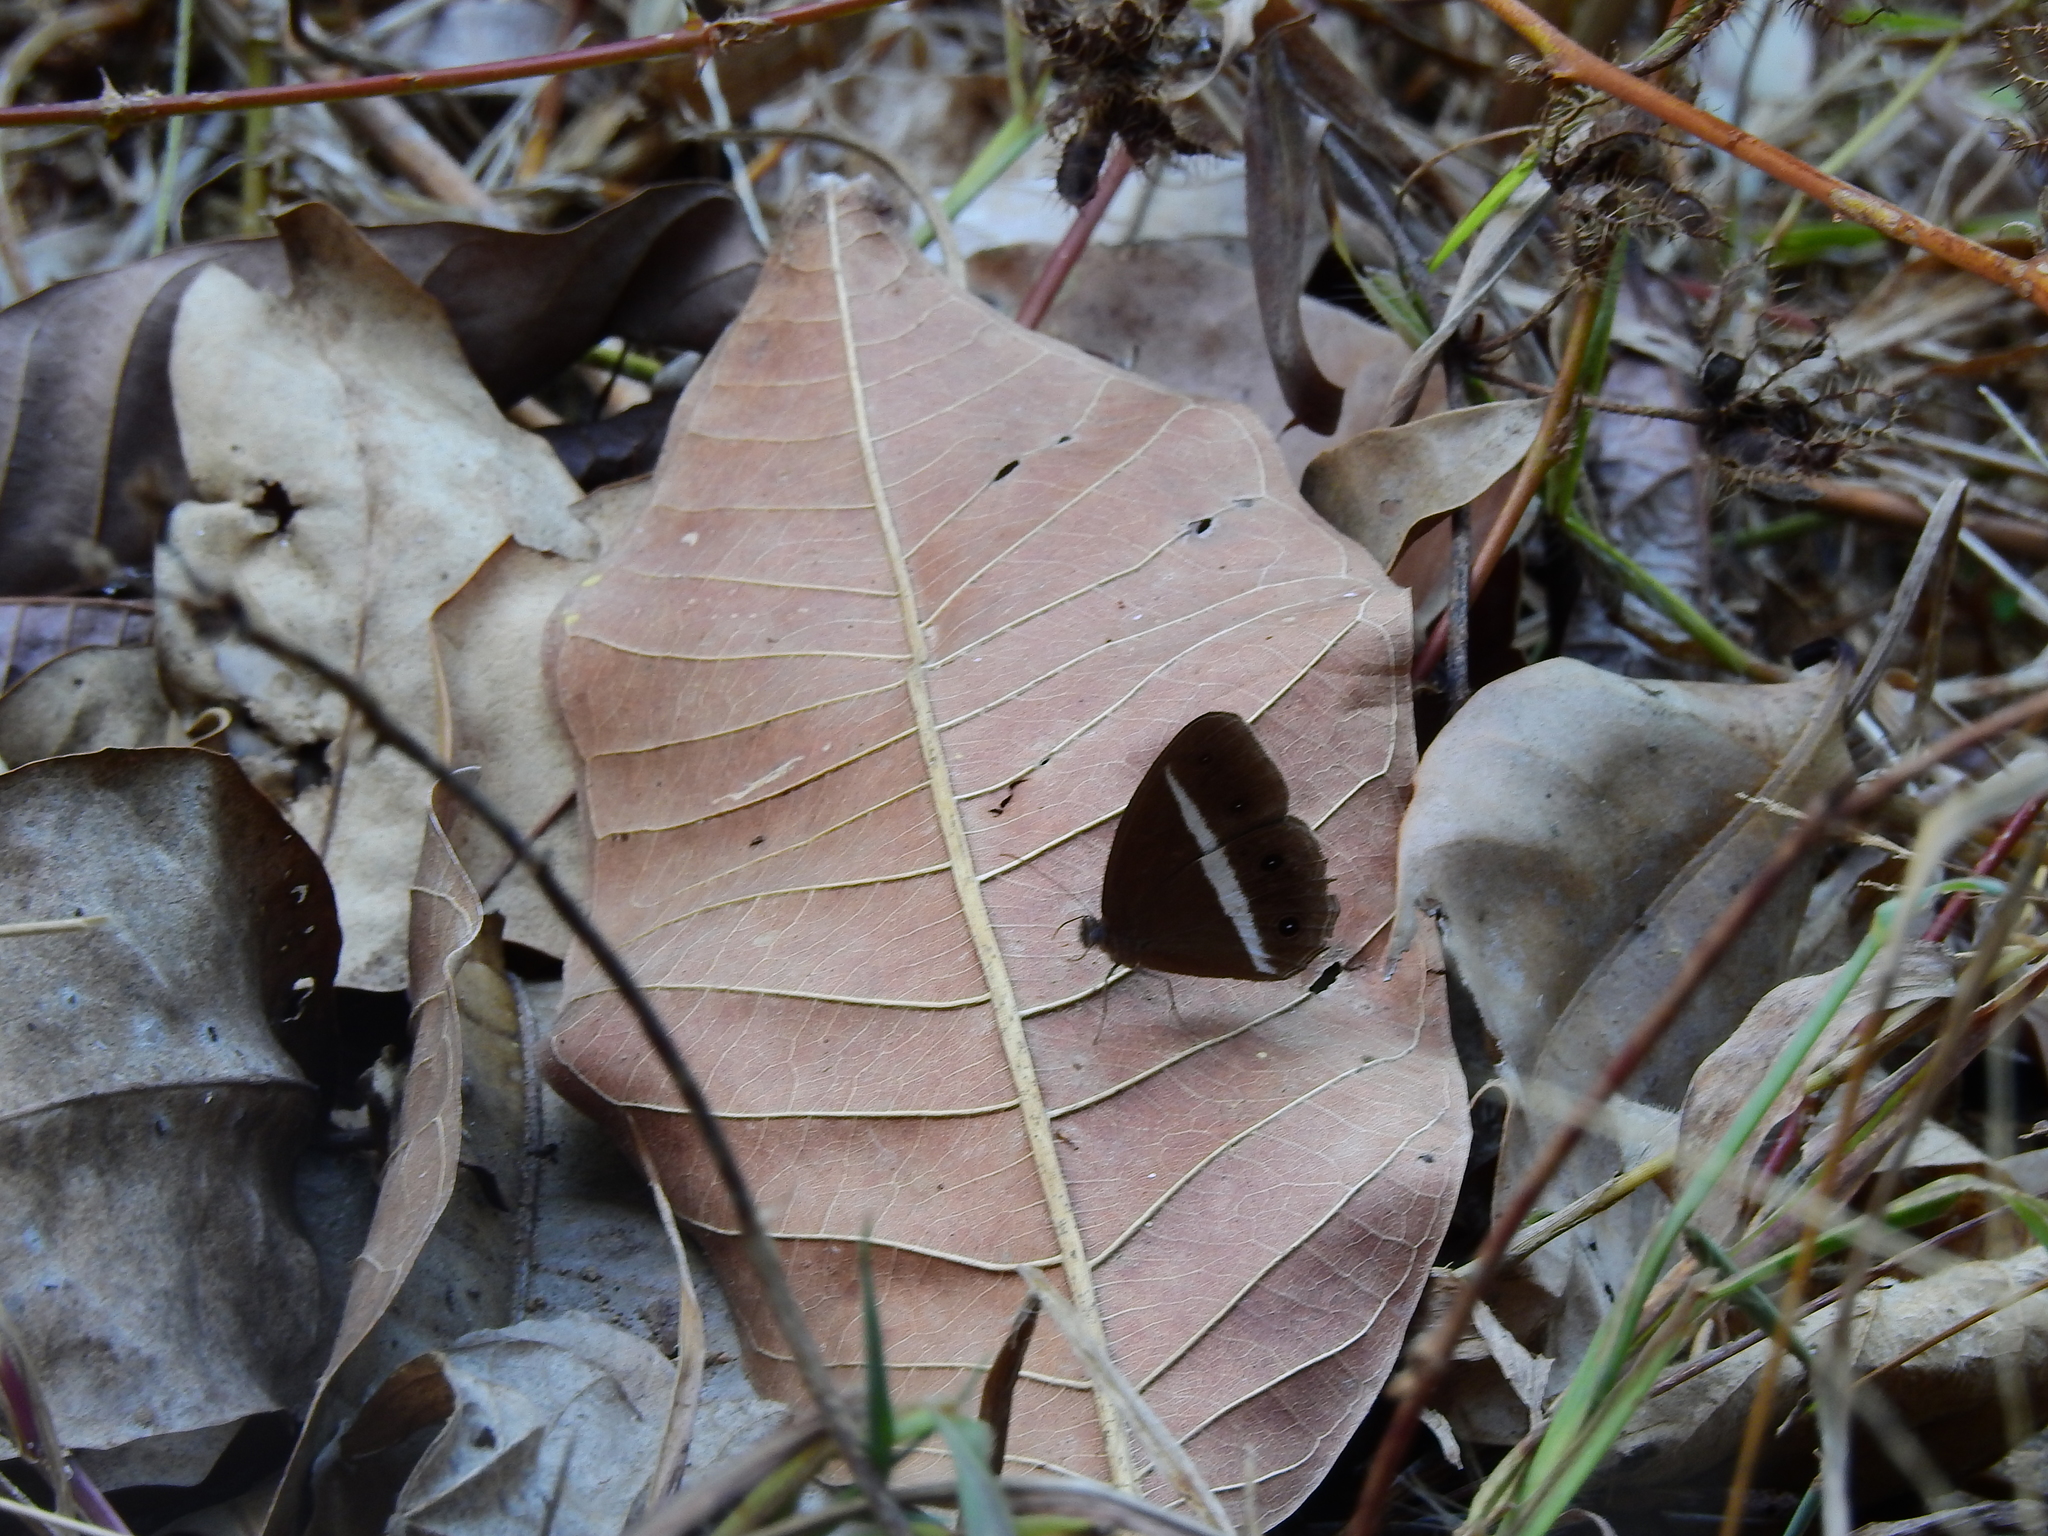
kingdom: Animalia
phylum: Arthropoda
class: Insecta
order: Lepidoptera
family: Nymphalidae
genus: Orsotriaena
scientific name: Orsotriaena medus
